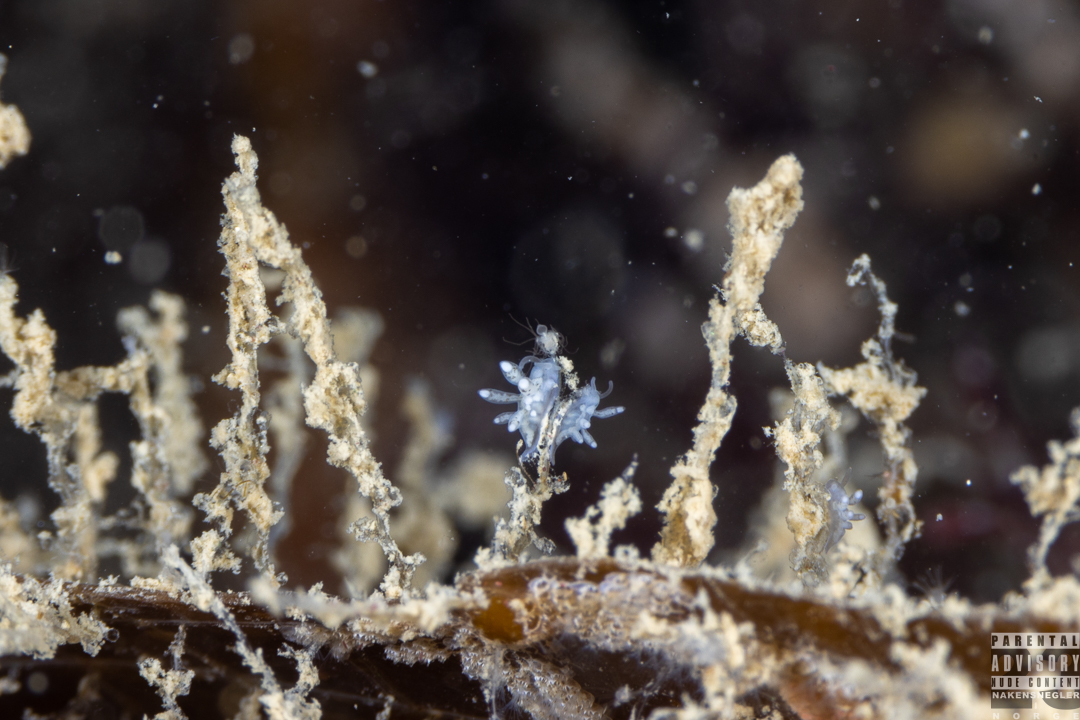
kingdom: Animalia
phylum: Mollusca
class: Gastropoda
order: Nudibranchia
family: Tergipedidae
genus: Tergipes
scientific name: Tergipes tergipes
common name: Johnston's balloon eolis
